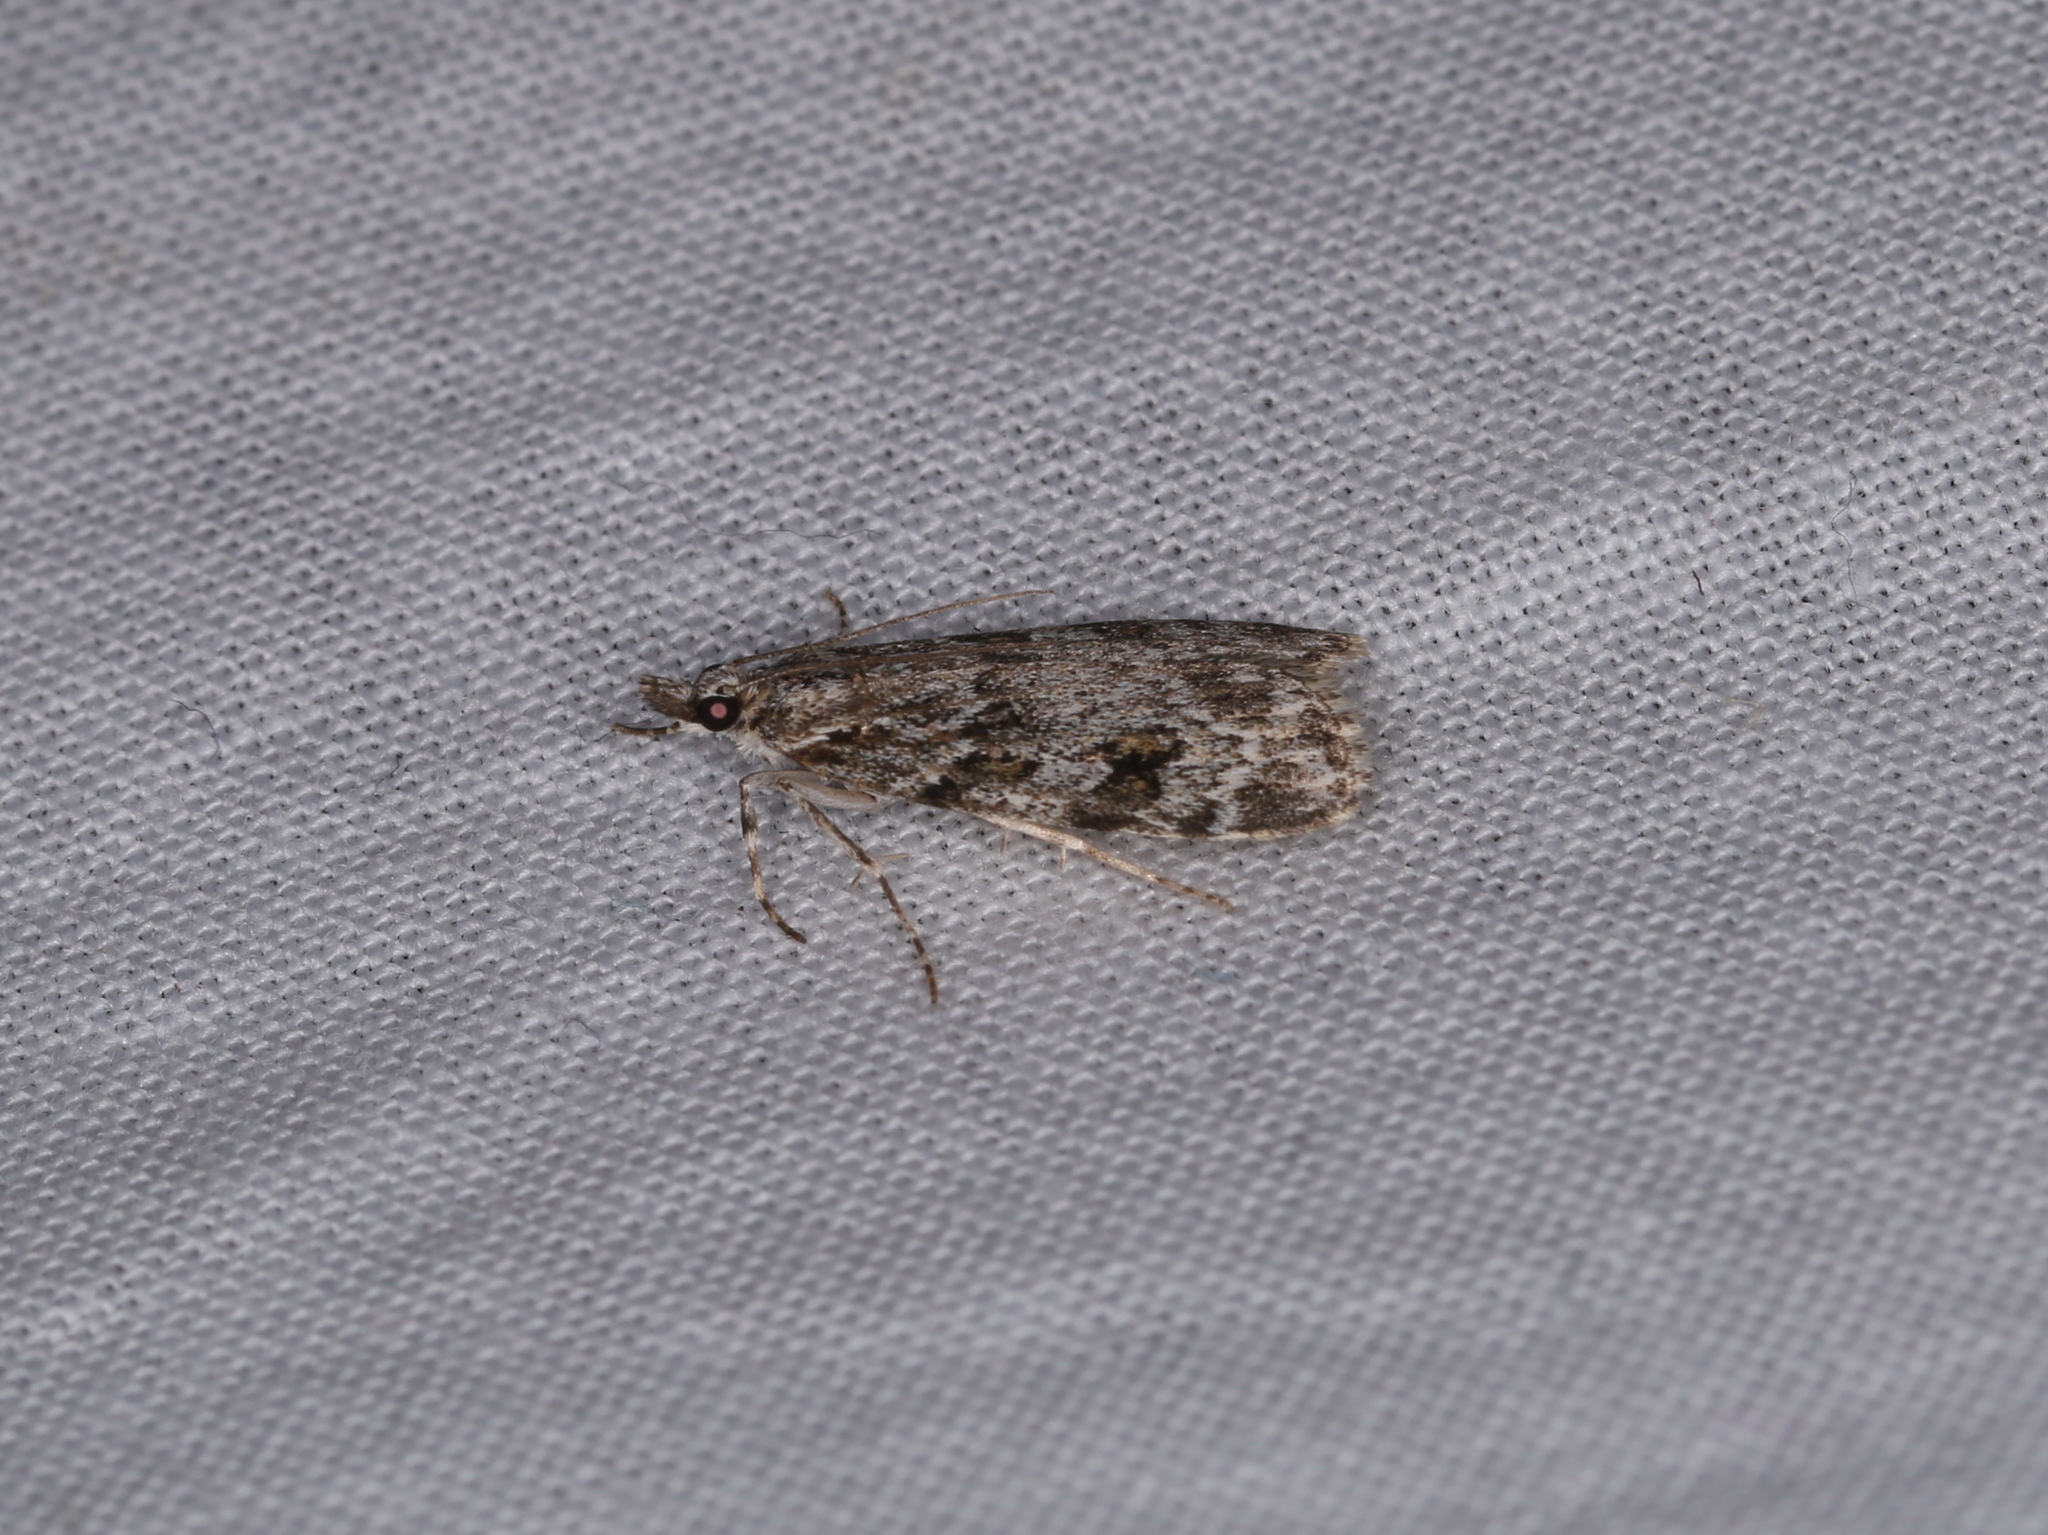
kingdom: Animalia
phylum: Arthropoda
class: Insecta
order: Lepidoptera
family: Crambidae
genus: Scoparia
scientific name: Scoparia pyralella
